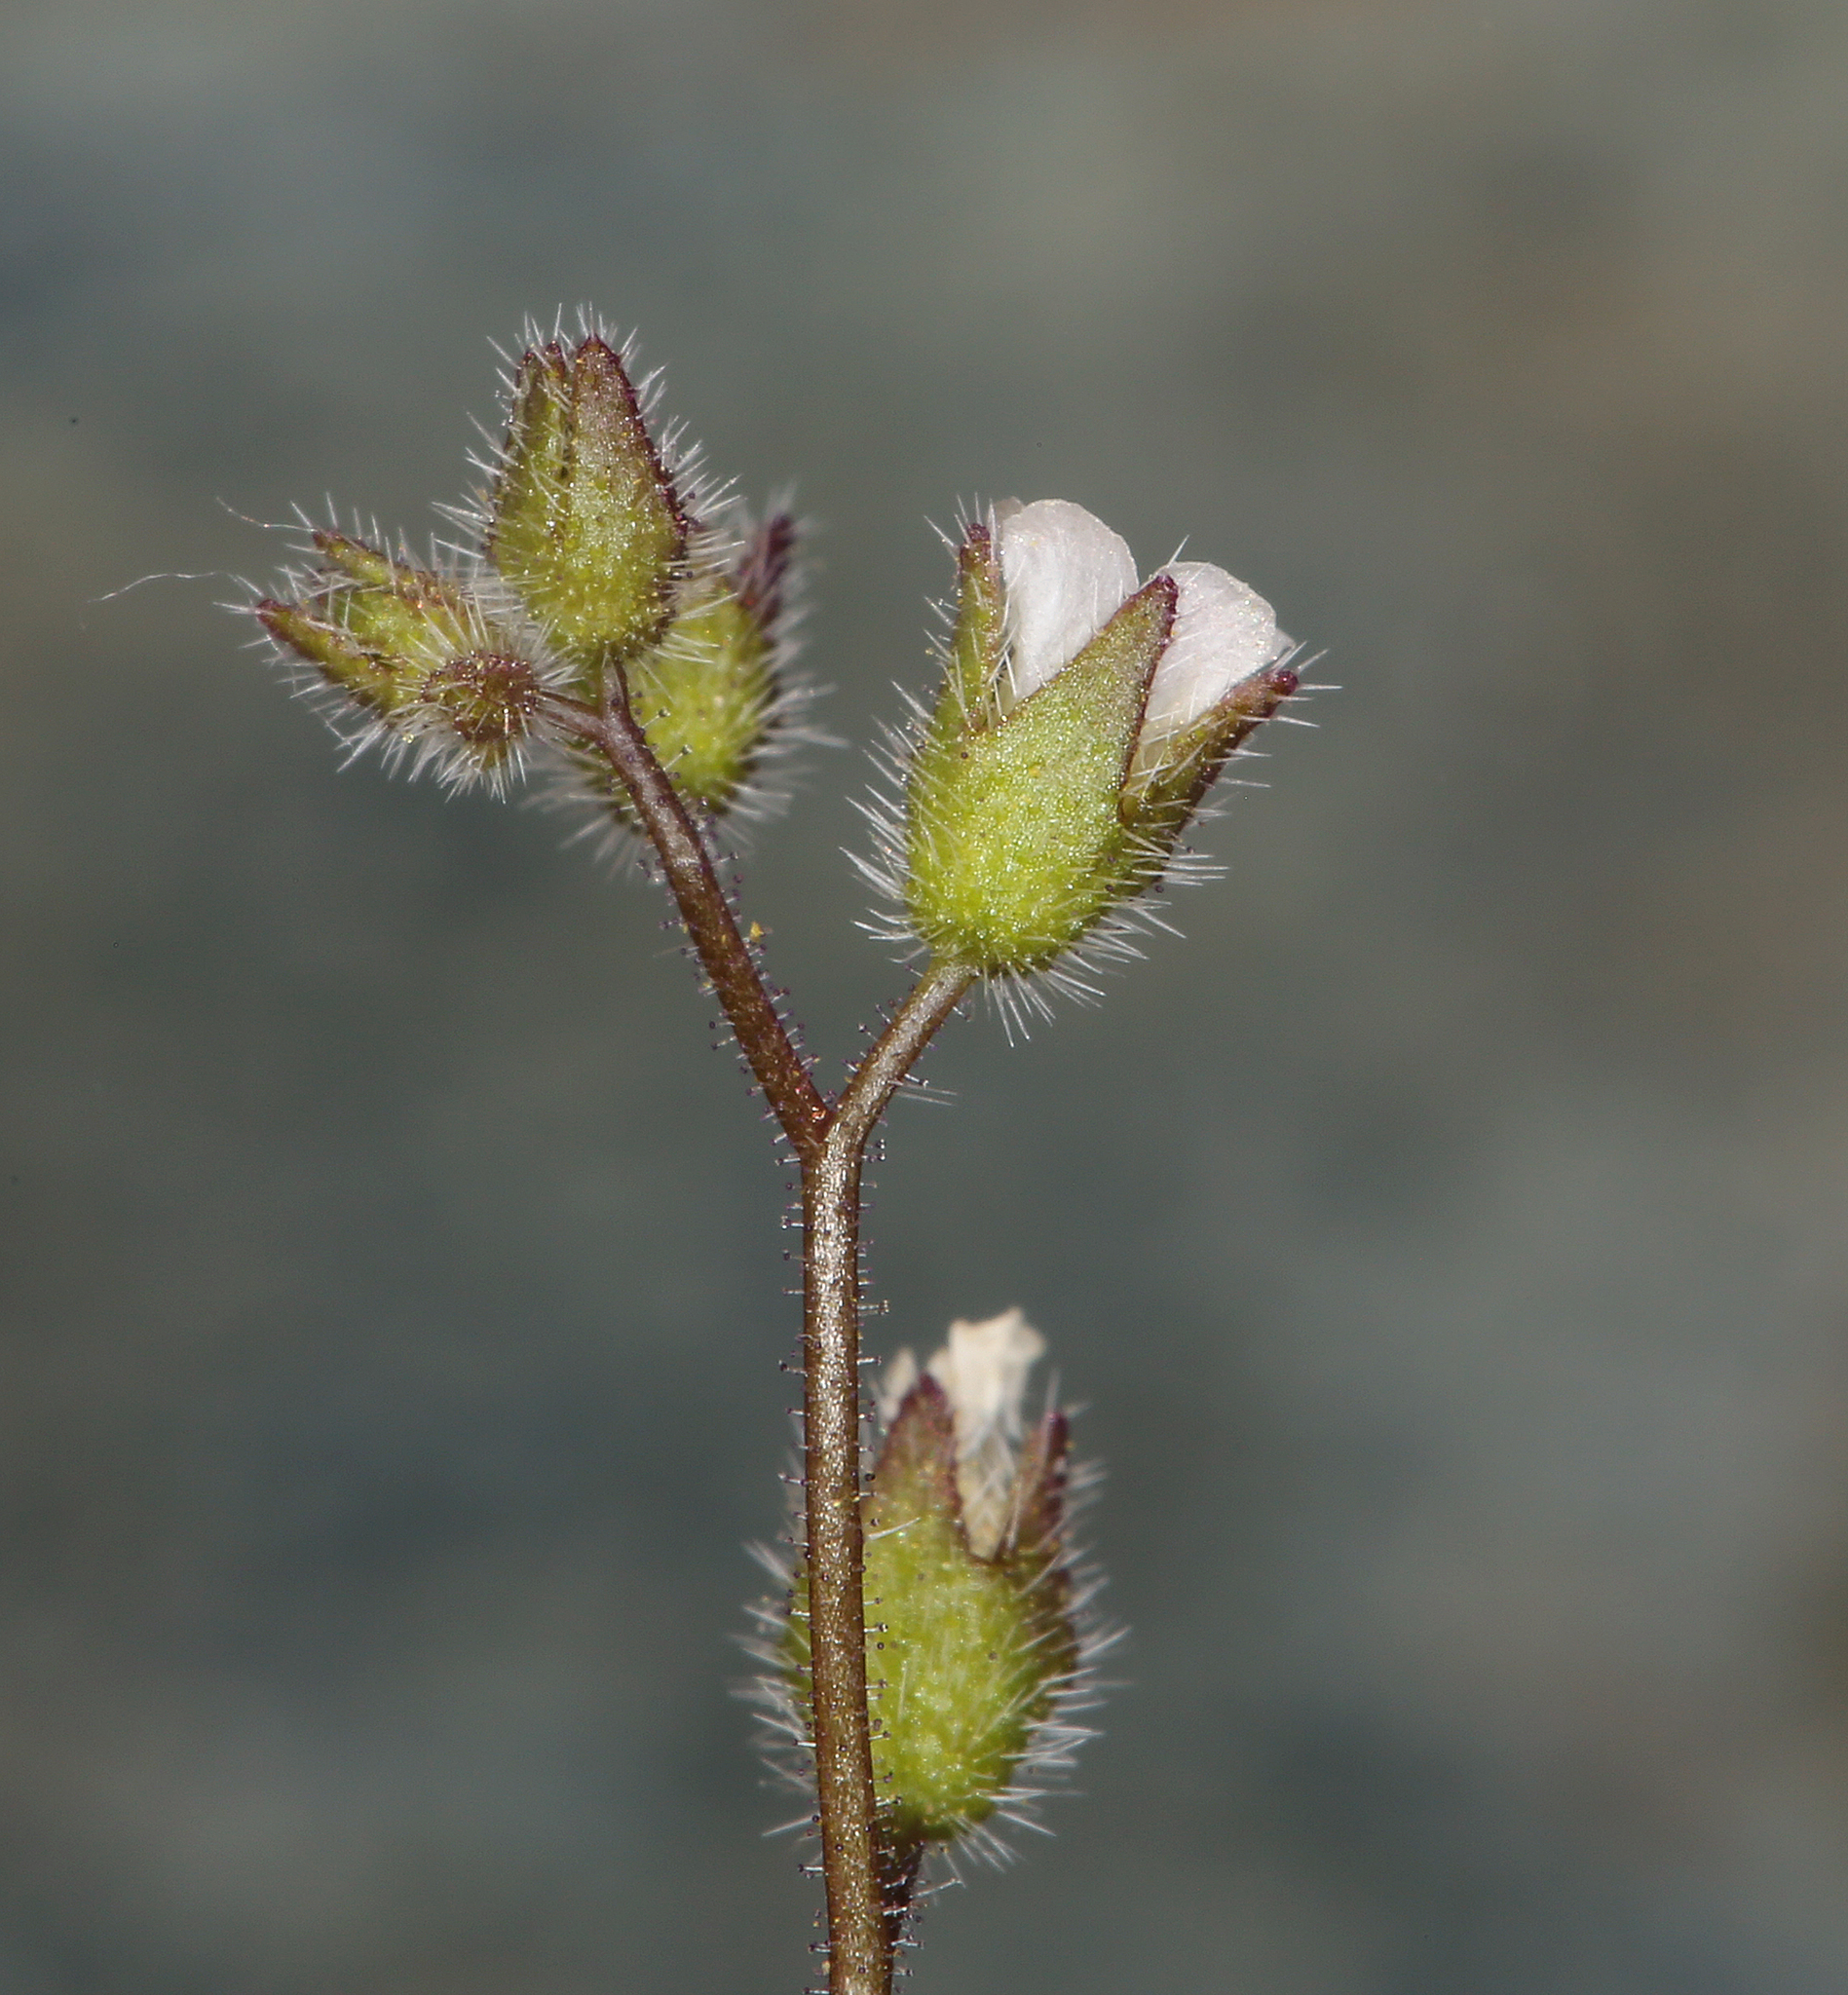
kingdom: Plantae
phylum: Tracheophyta
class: Magnoliopsida
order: Boraginales
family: Hydrophyllaceae
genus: Eucrypta
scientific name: Eucrypta micrantha
